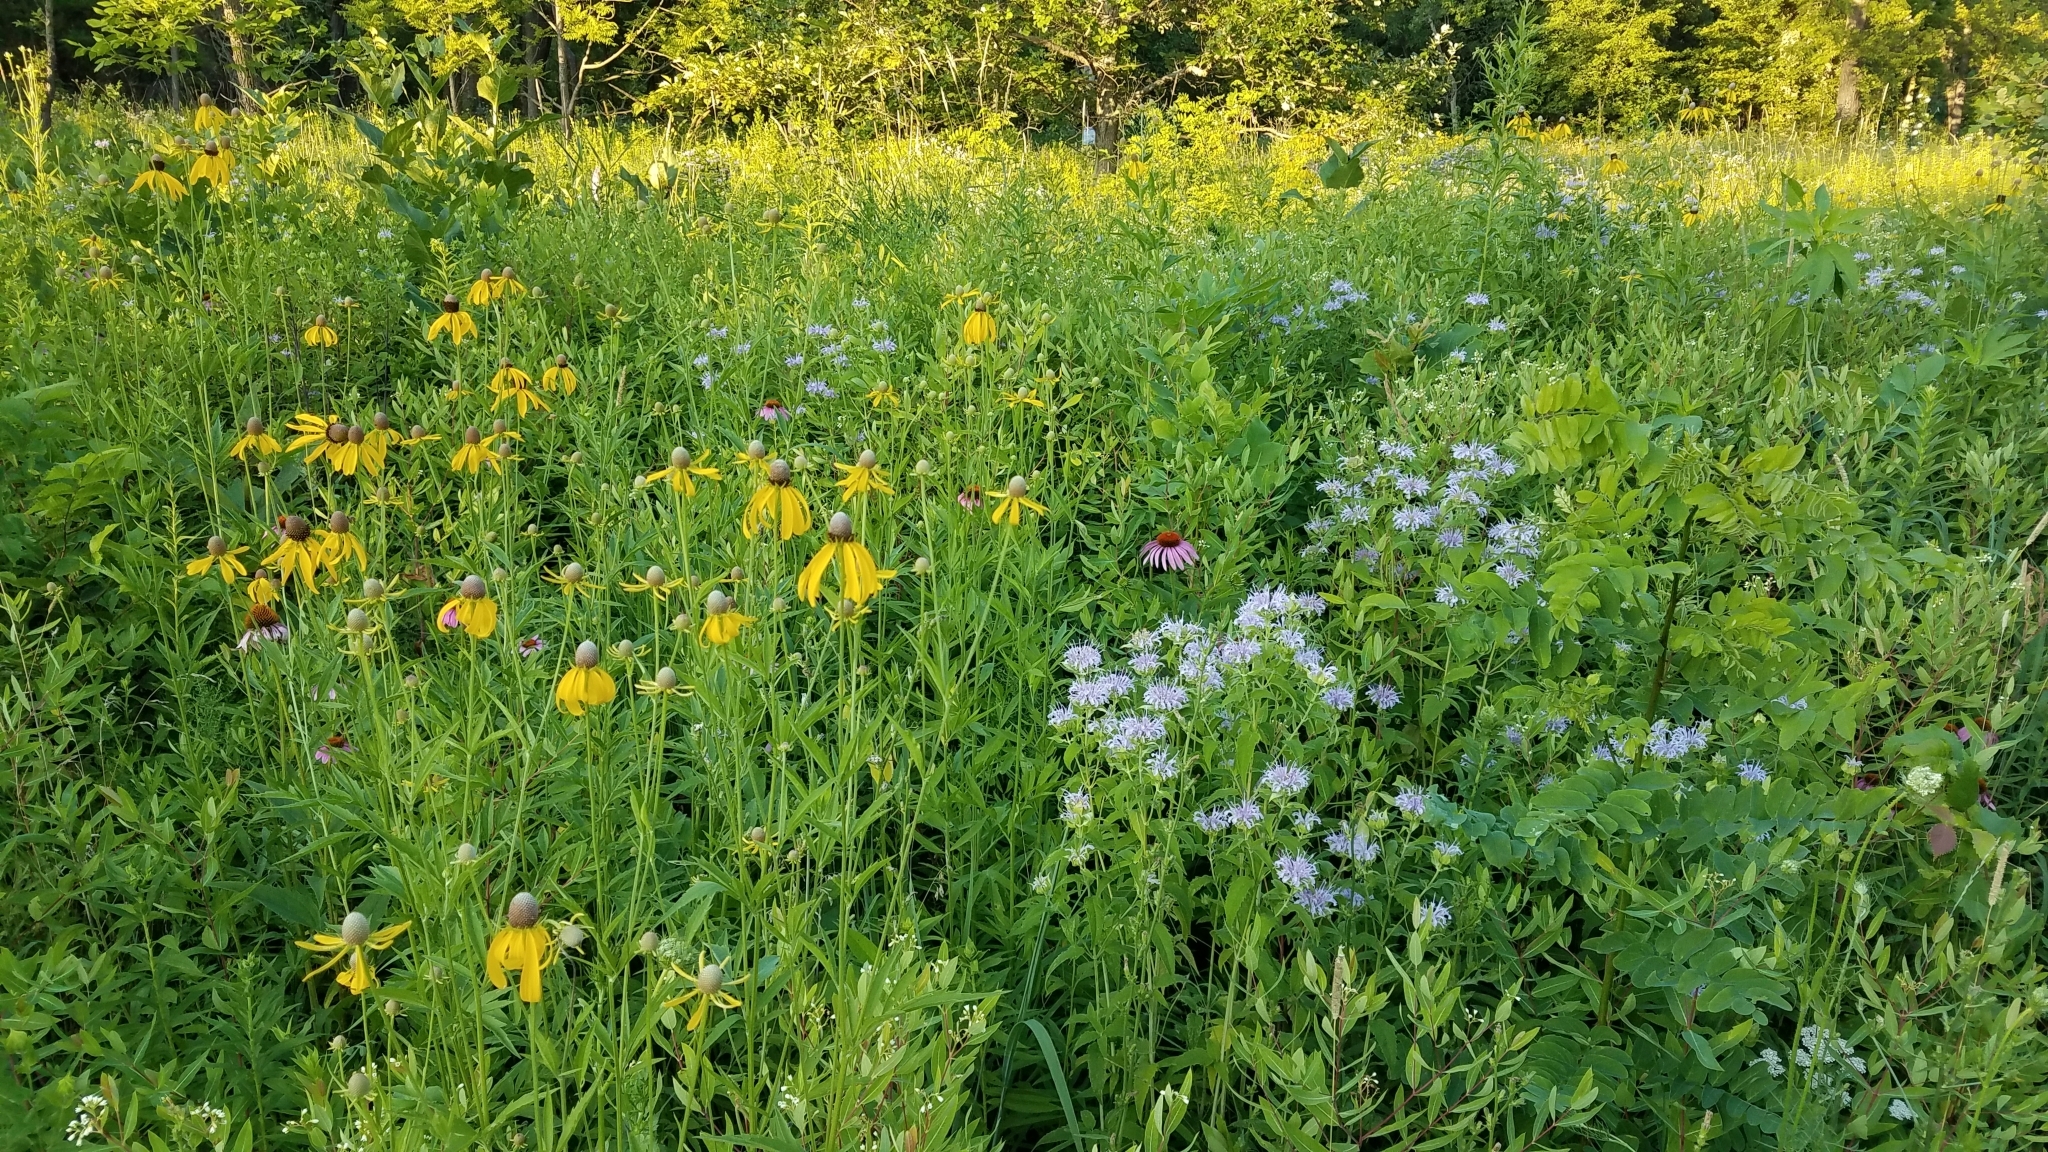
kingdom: Plantae
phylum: Tracheophyta
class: Magnoliopsida
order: Asterales
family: Asteraceae
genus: Ratibida
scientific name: Ratibida pinnata
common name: Drooping prairie-coneflower
